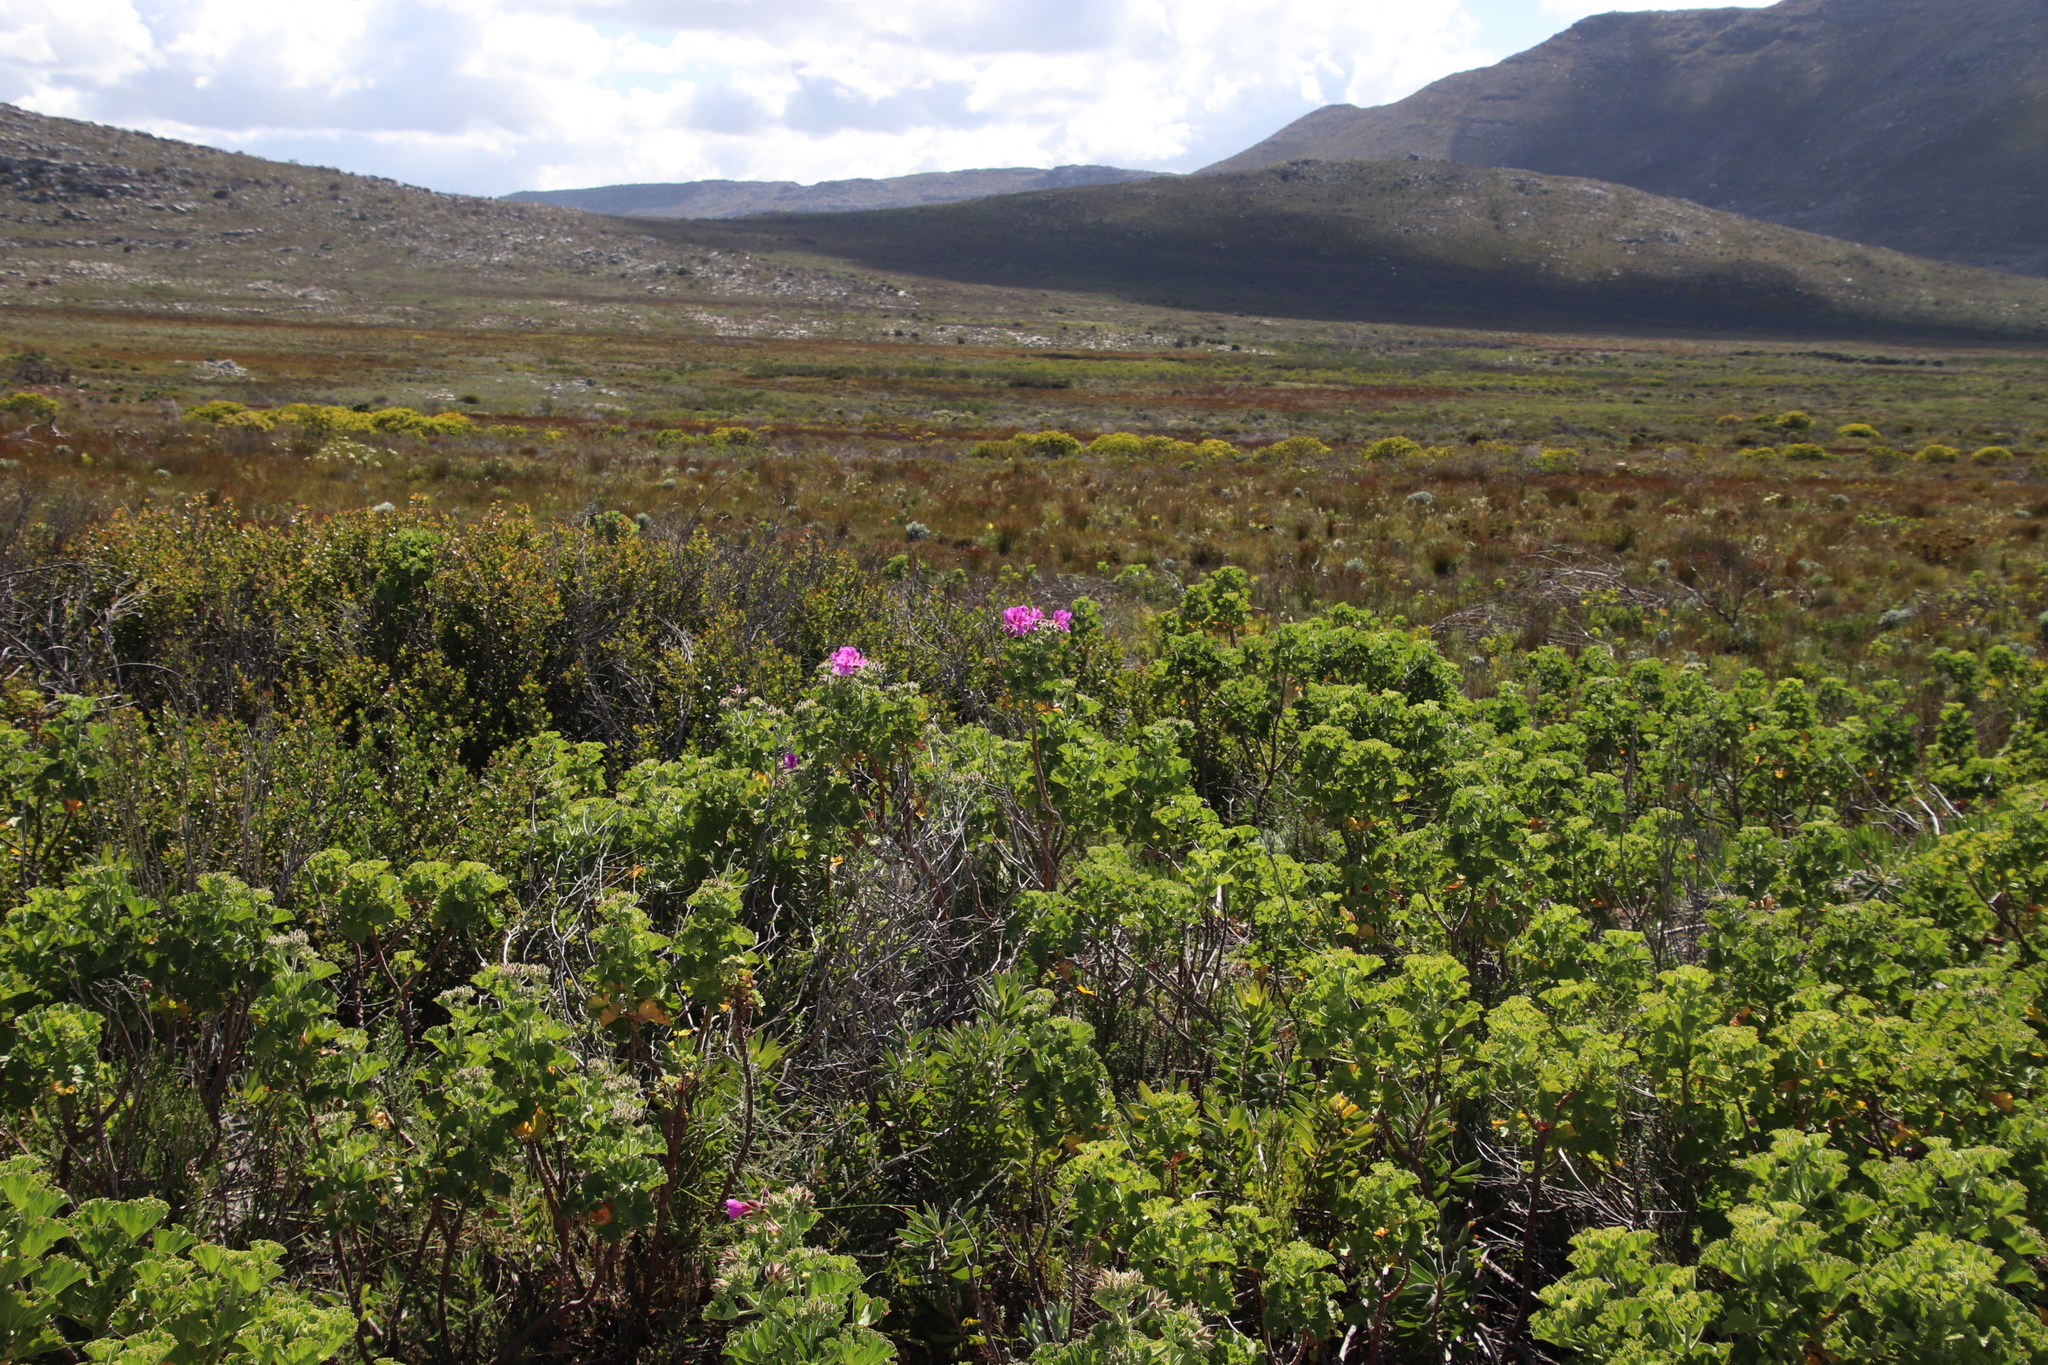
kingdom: Plantae
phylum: Tracheophyta
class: Magnoliopsida
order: Geraniales
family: Geraniaceae
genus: Pelargonium
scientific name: Pelargonium cucullatum
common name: Tree pelargonium
